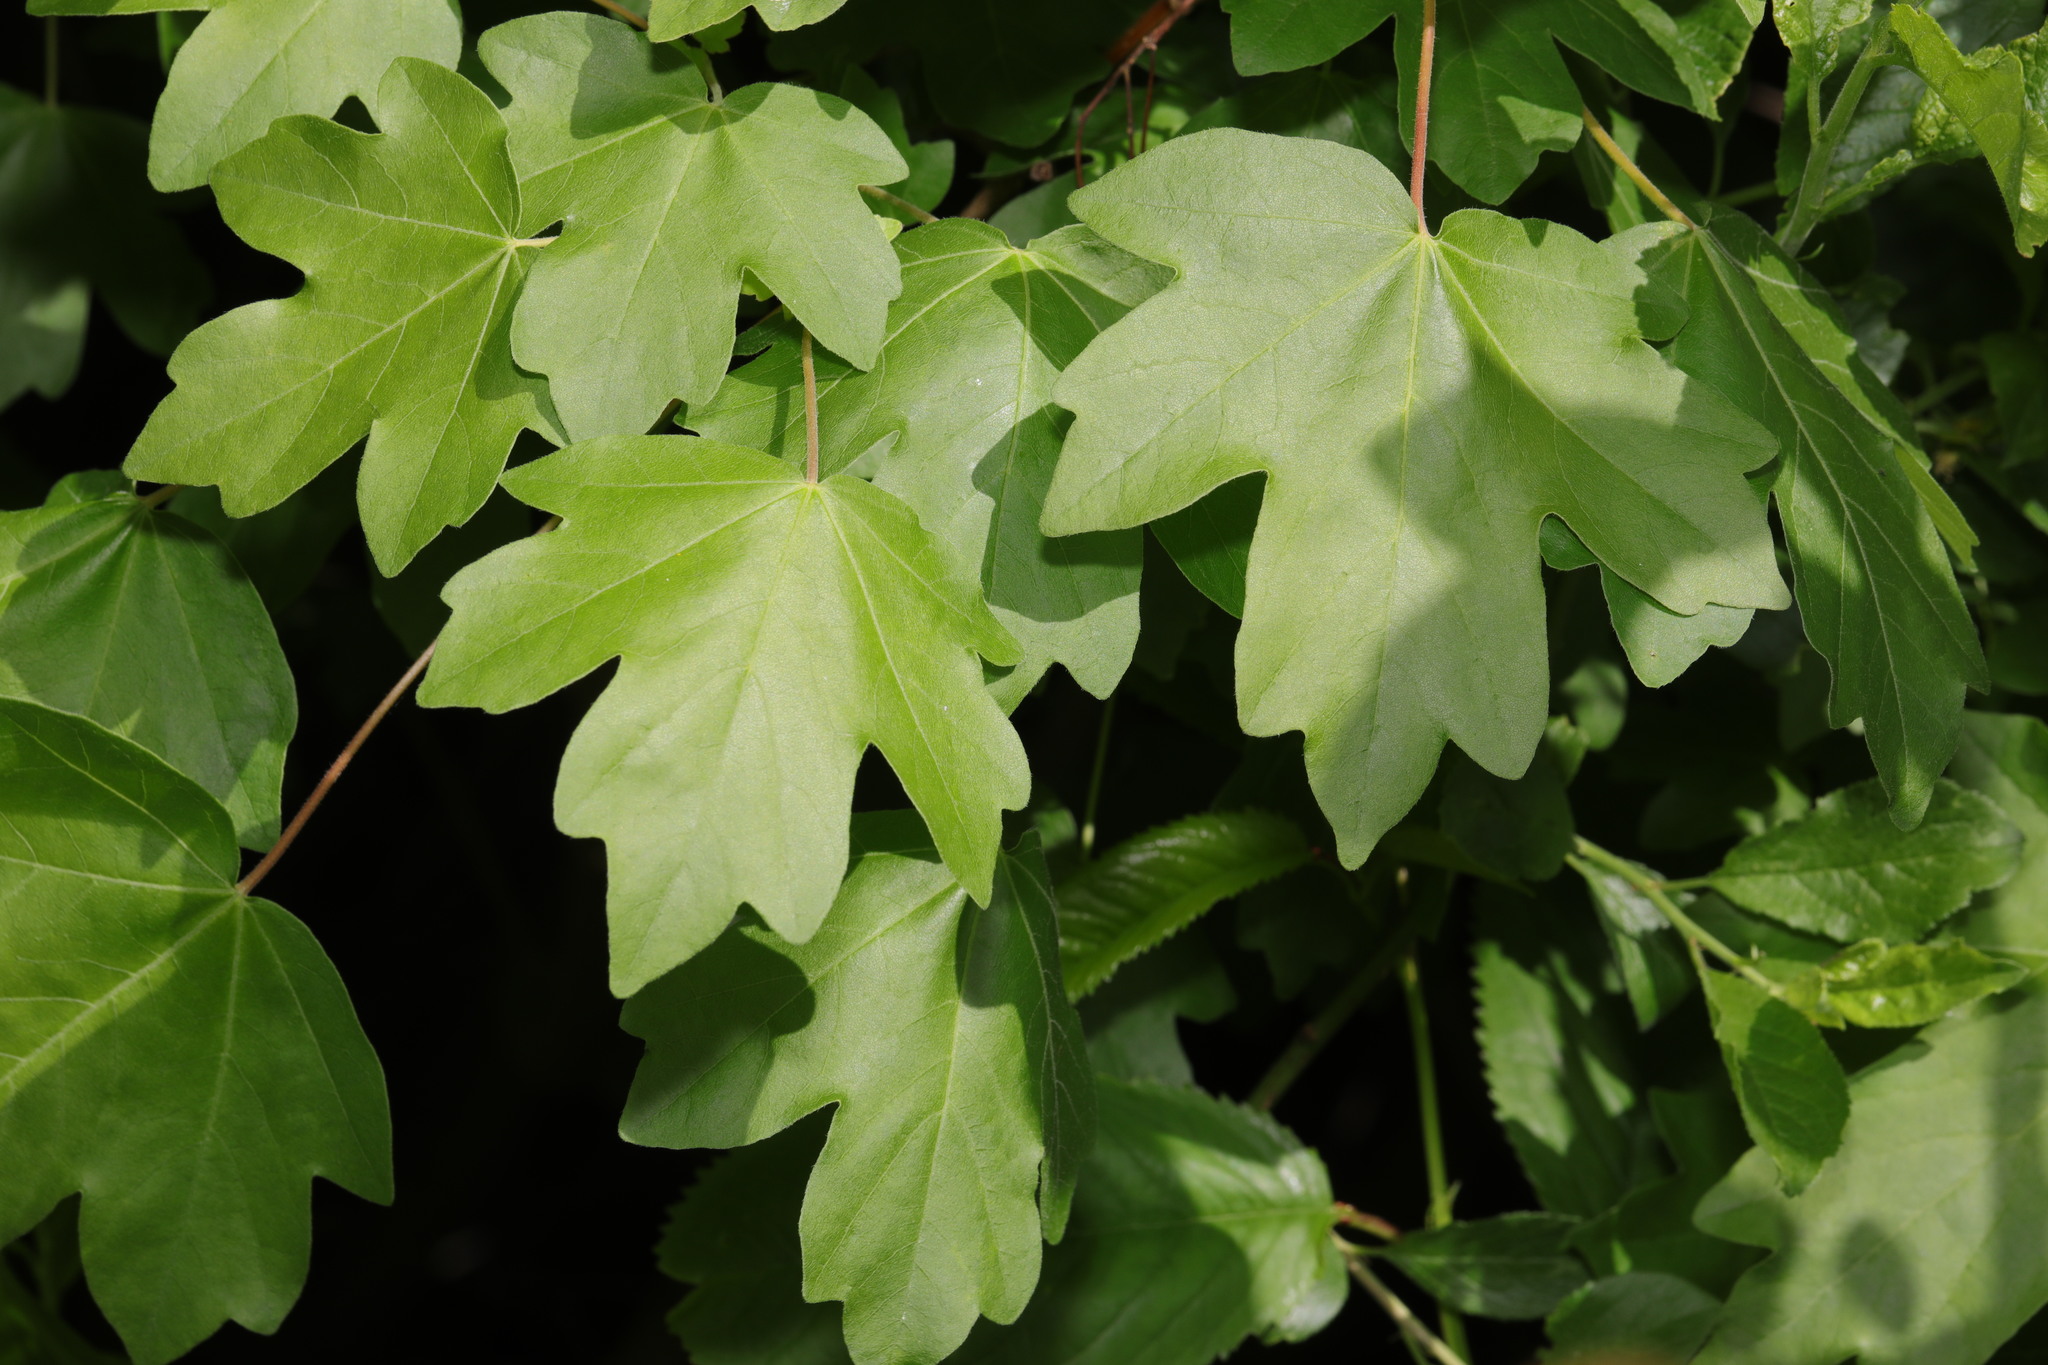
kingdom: Plantae
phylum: Tracheophyta
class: Magnoliopsida
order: Sapindales
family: Sapindaceae
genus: Acer
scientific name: Acer campestre
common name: Field maple
